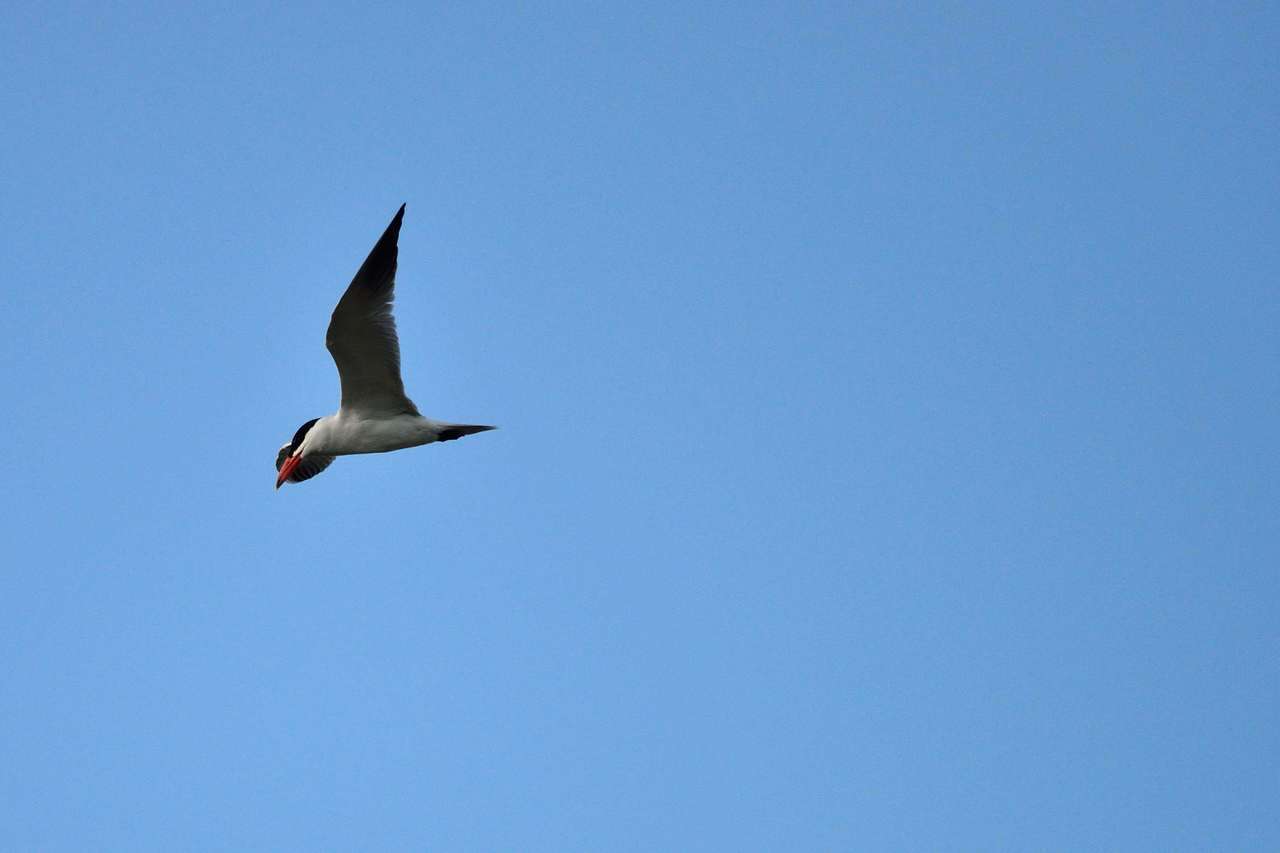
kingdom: Animalia
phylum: Chordata
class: Aves
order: Charadriiformes
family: Laridae
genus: Hydroprogne
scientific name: Hydroprogne caspia
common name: Caspian tern
